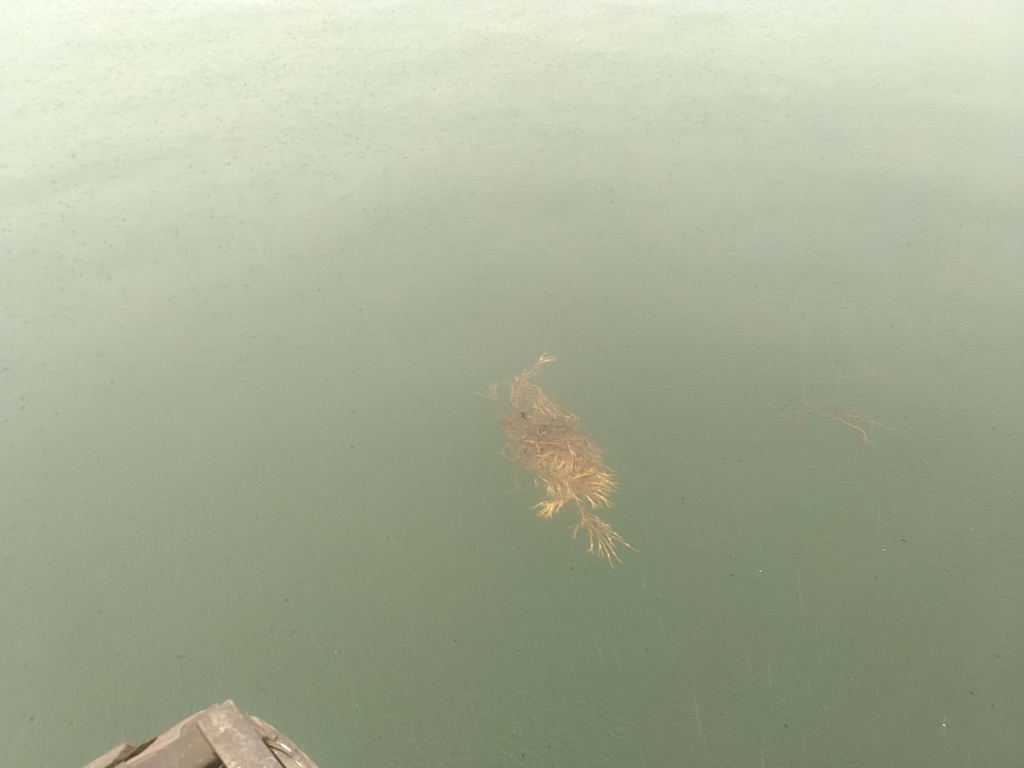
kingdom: Chromista
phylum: Ochrophyta
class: Phaeophyceae
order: Fucales
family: Fucaceae
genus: Ascophyllum
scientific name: Ascophyllum nodosum
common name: Knotted wrack
